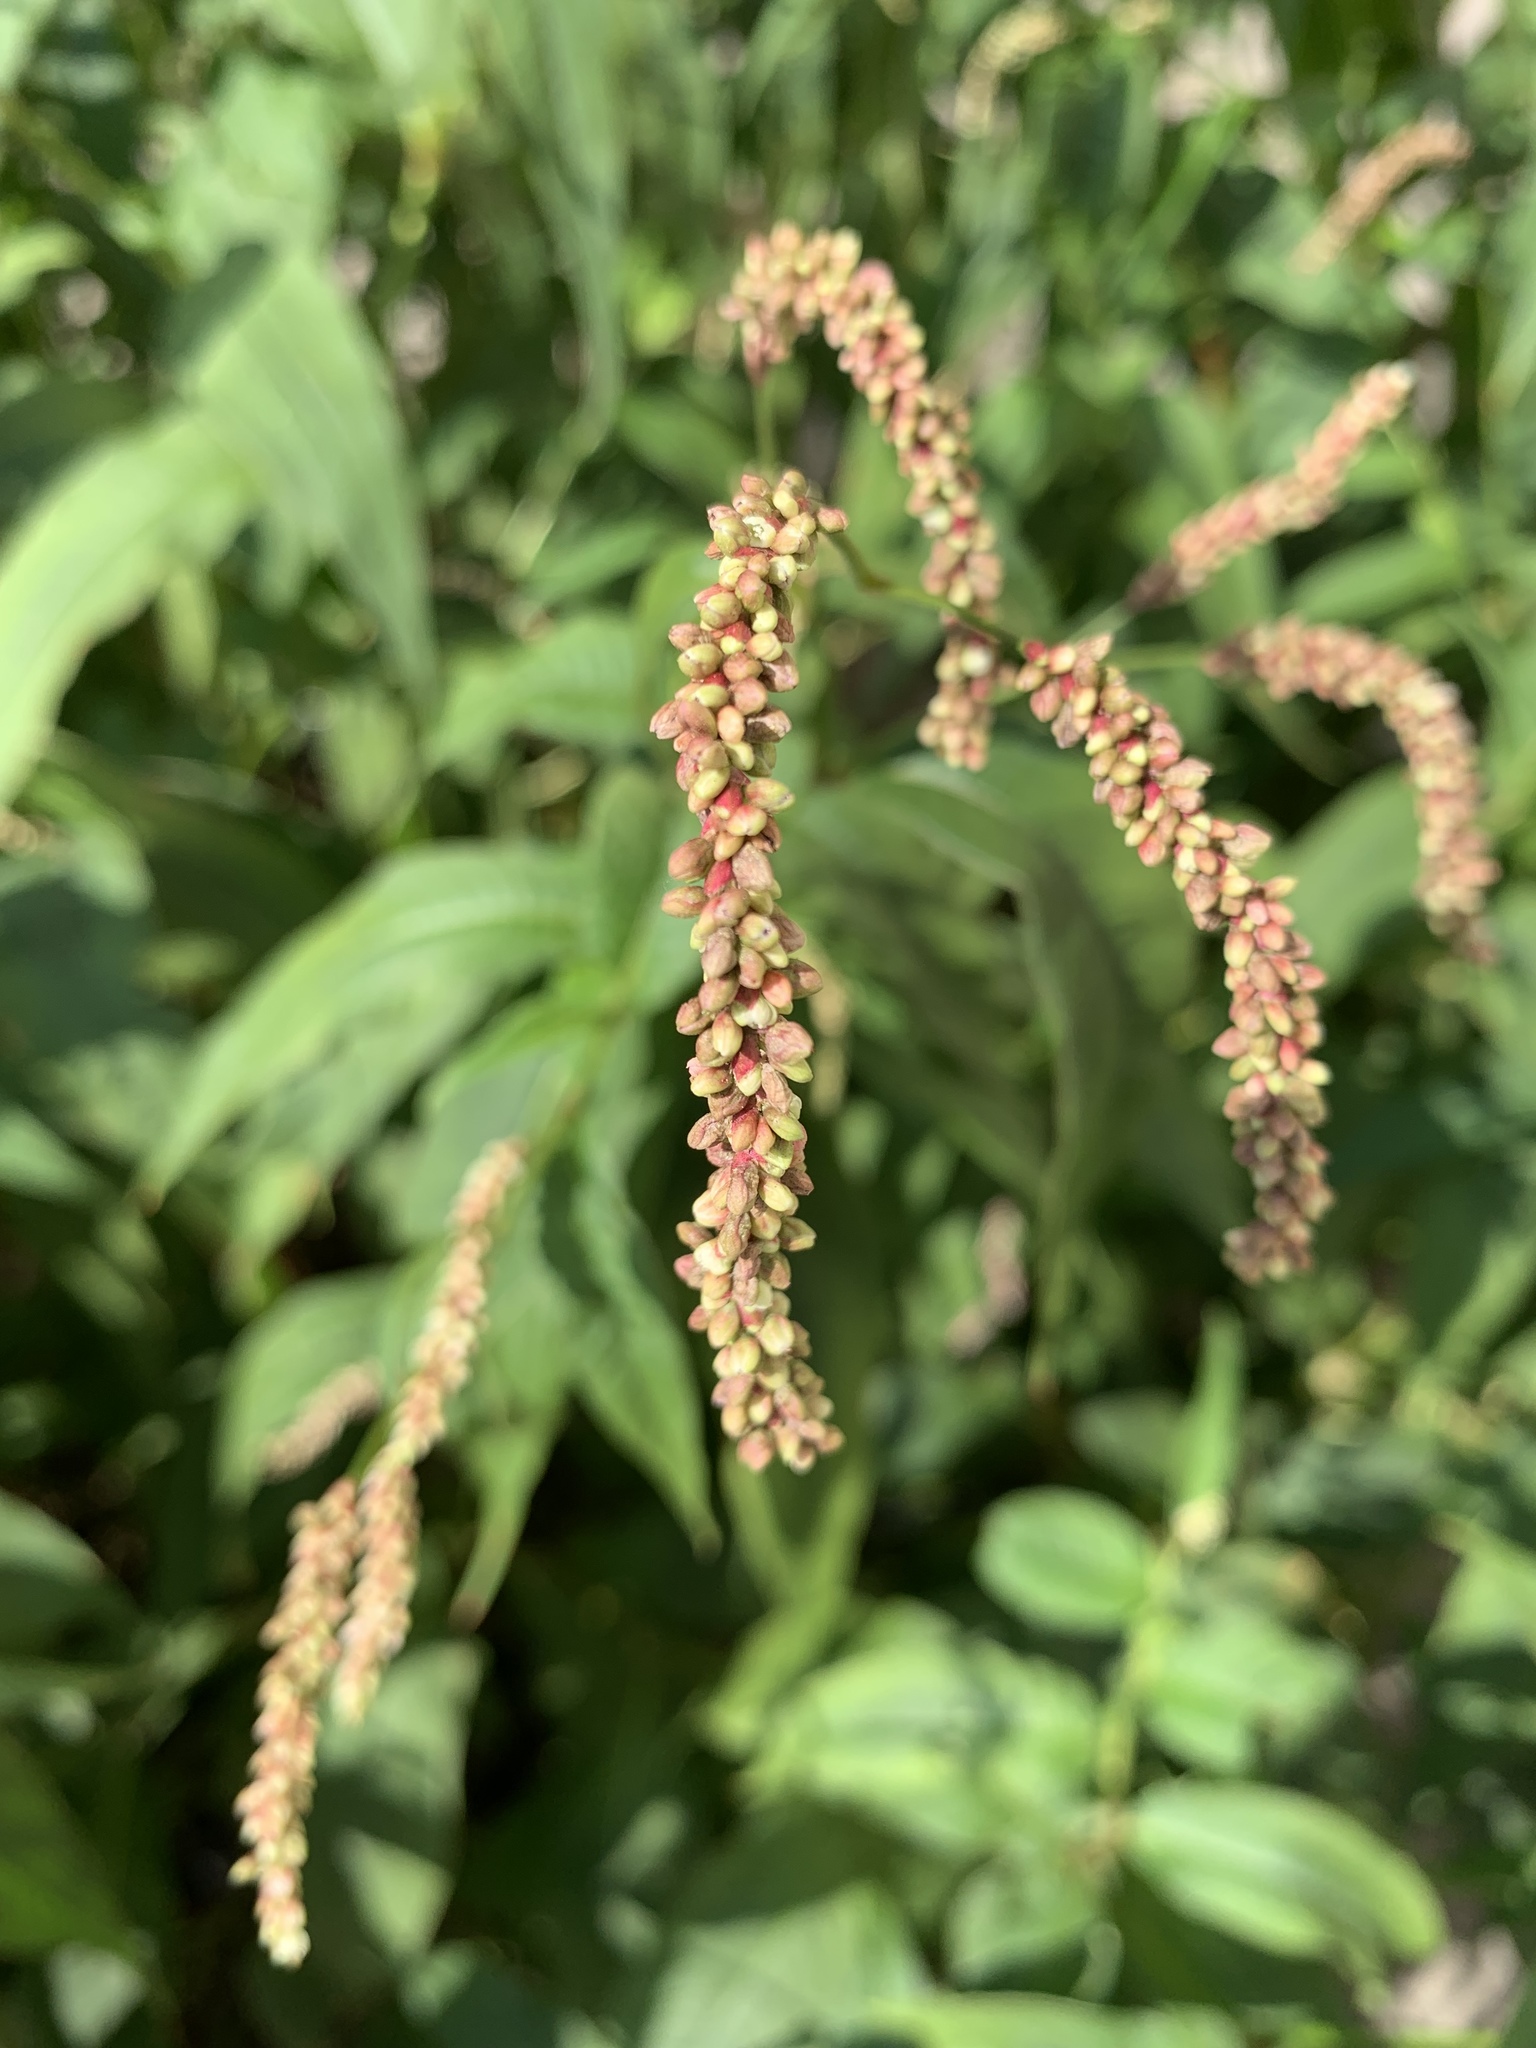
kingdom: Plantae
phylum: Tracheophyta
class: Magnoliopsida
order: Caryophyllales
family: Polygonaceae
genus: Persicaria
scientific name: Persicaria lapathifolia
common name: Curlytop knotweed
